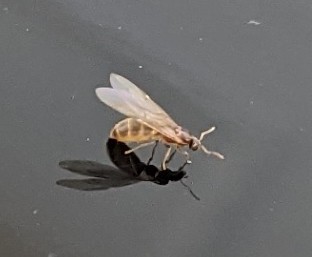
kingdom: Animalia
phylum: Arthropoda
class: Insecta
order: Hymenoptera
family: Formicidae
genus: Brachymyrmex
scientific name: Brachymyrmex depilis
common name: Hairless rover ant
